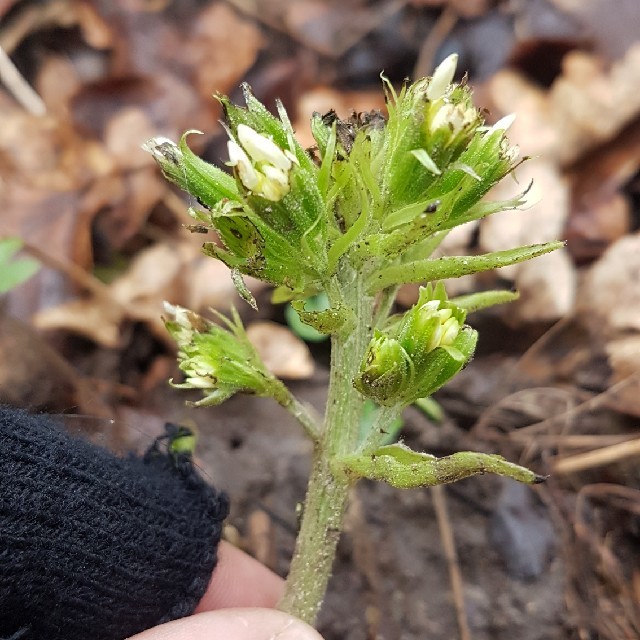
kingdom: Plantae
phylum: Tracheophyta
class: Magnoliopsida
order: Asterales
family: Asteraceae
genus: Petasites
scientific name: Petasites albus
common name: White butterbur
